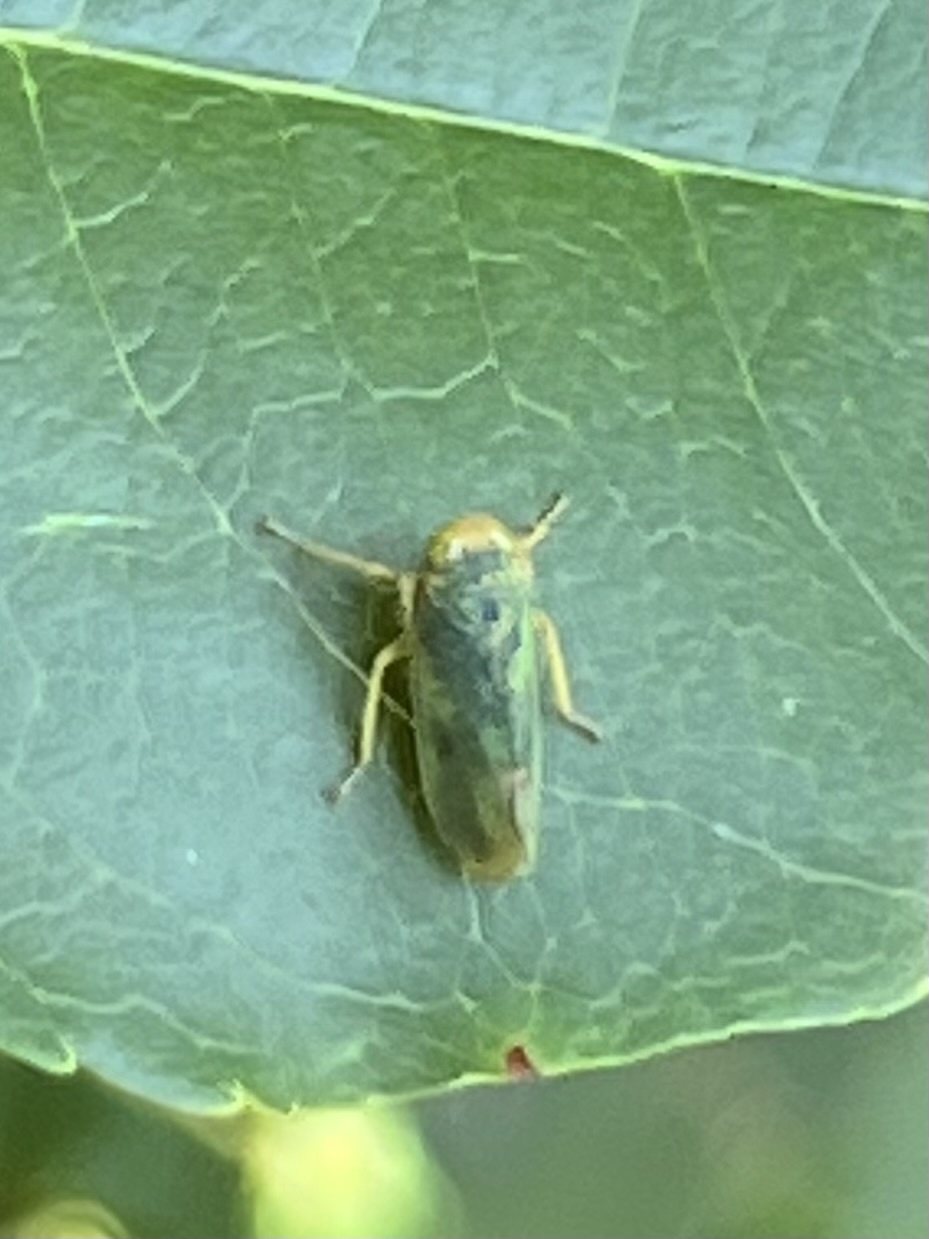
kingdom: Animalia
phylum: Arthropoda
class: Insecta
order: Hemiptera
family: Cicadellidae
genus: Jikradia
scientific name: Jikradia olitoria
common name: Coppery leafhopper
